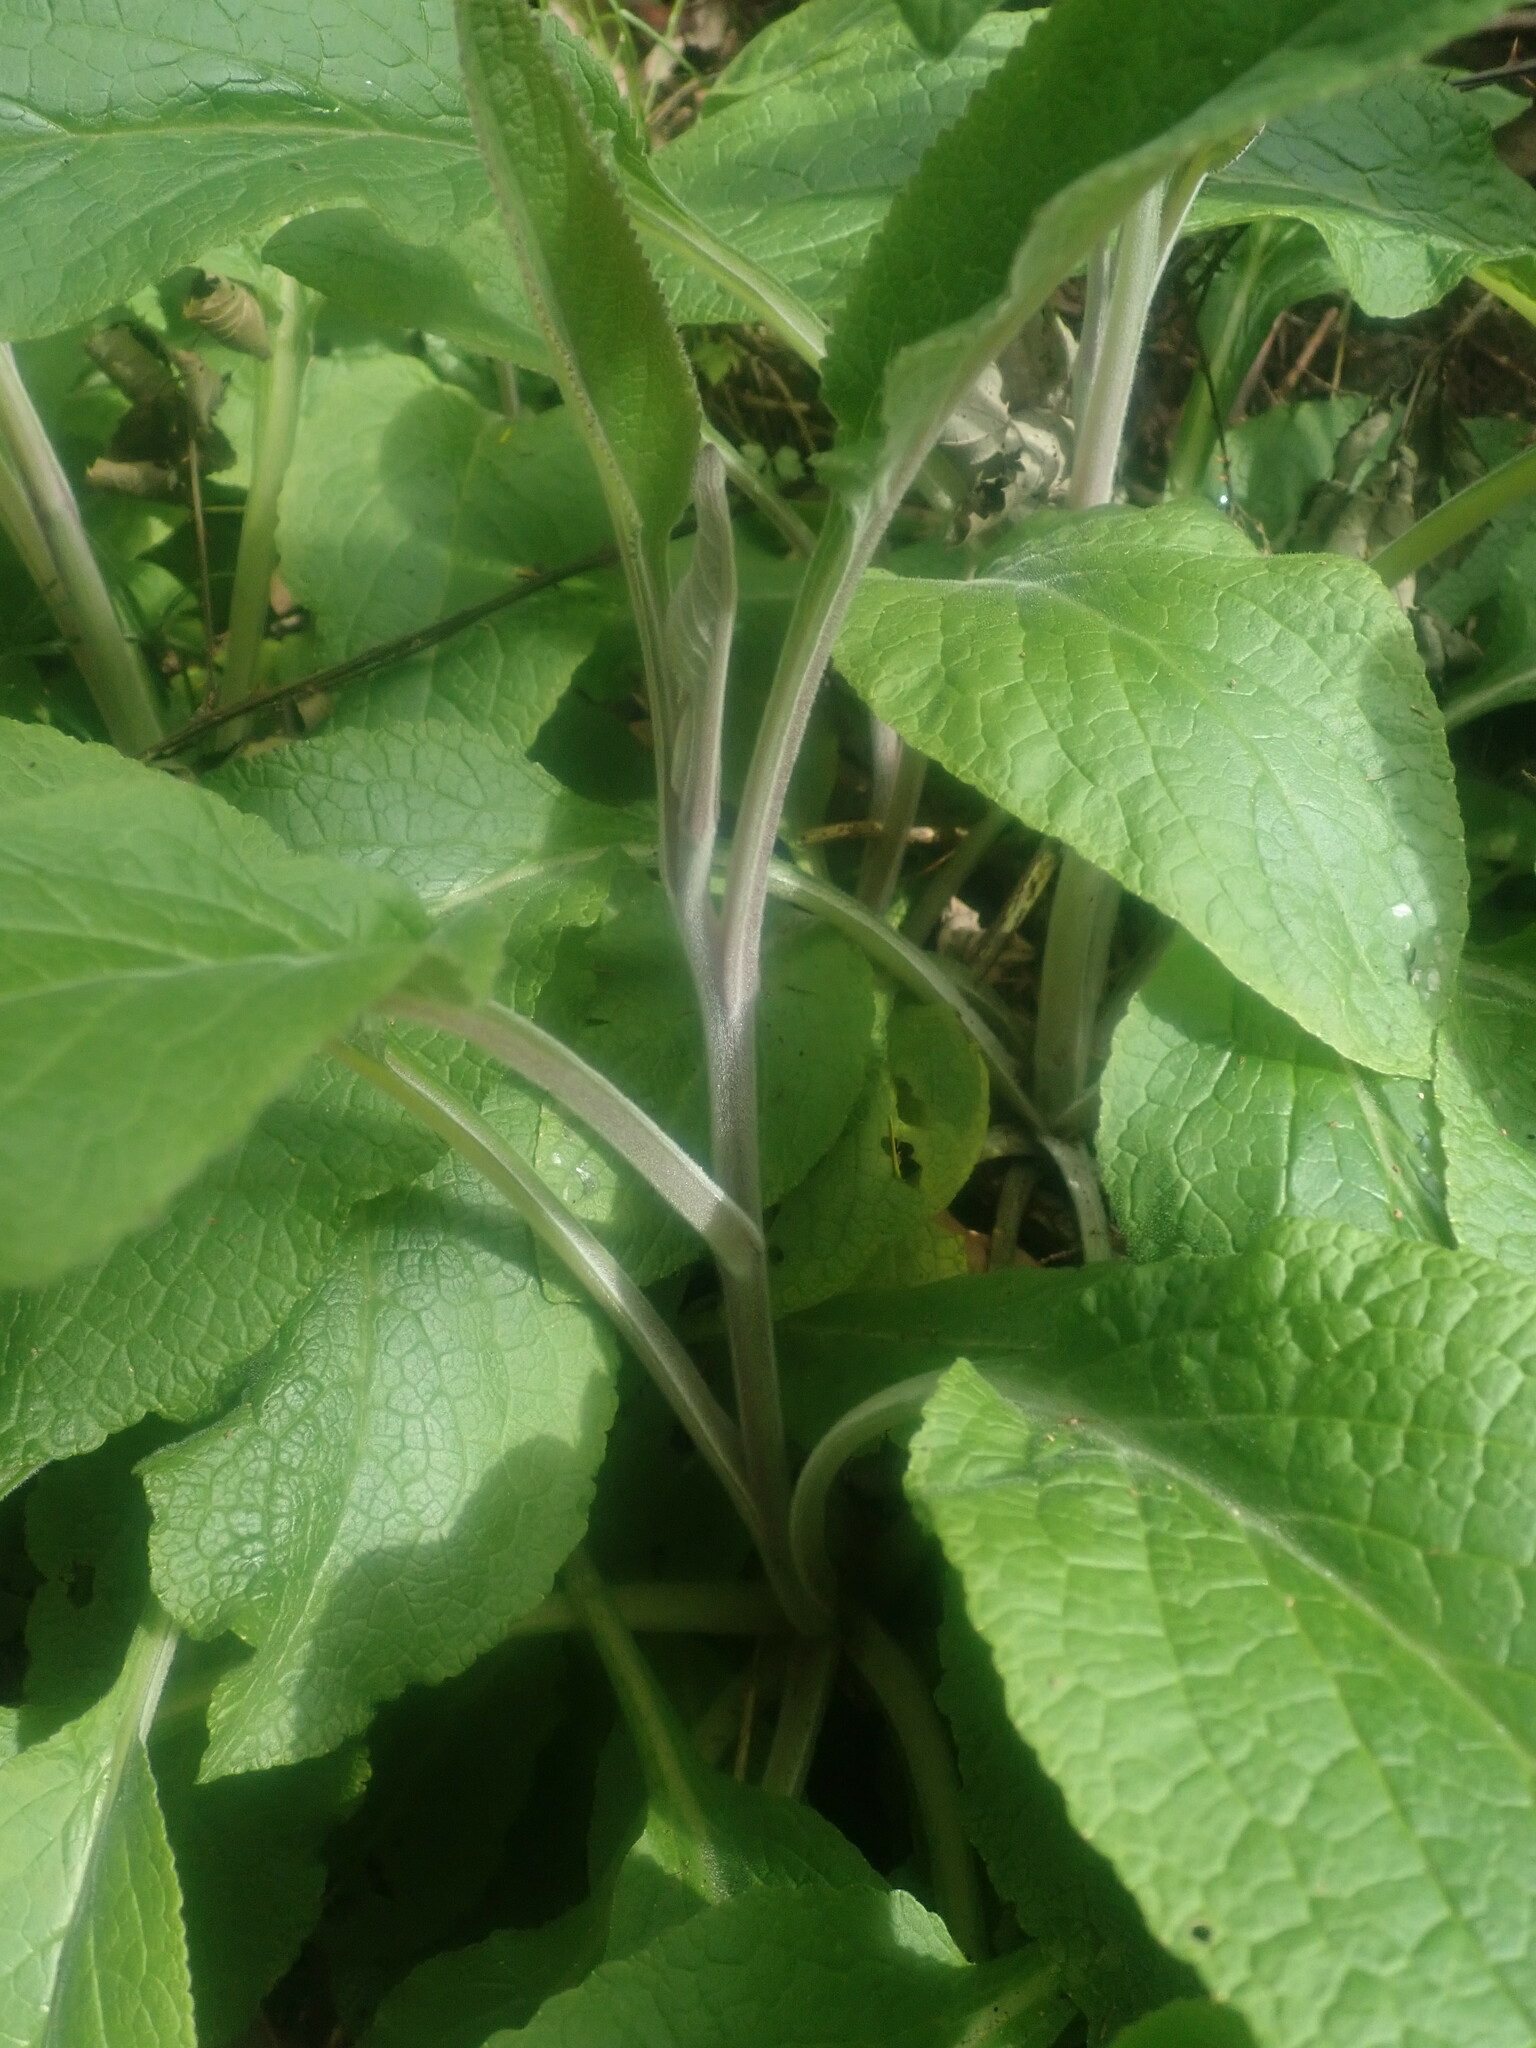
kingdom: Plantae
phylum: Tracheophyta
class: Magnoliopsida
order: Lamiales
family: Plantaginaceae
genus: Digitalis
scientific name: Digitalis purpurea
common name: Foxglove
